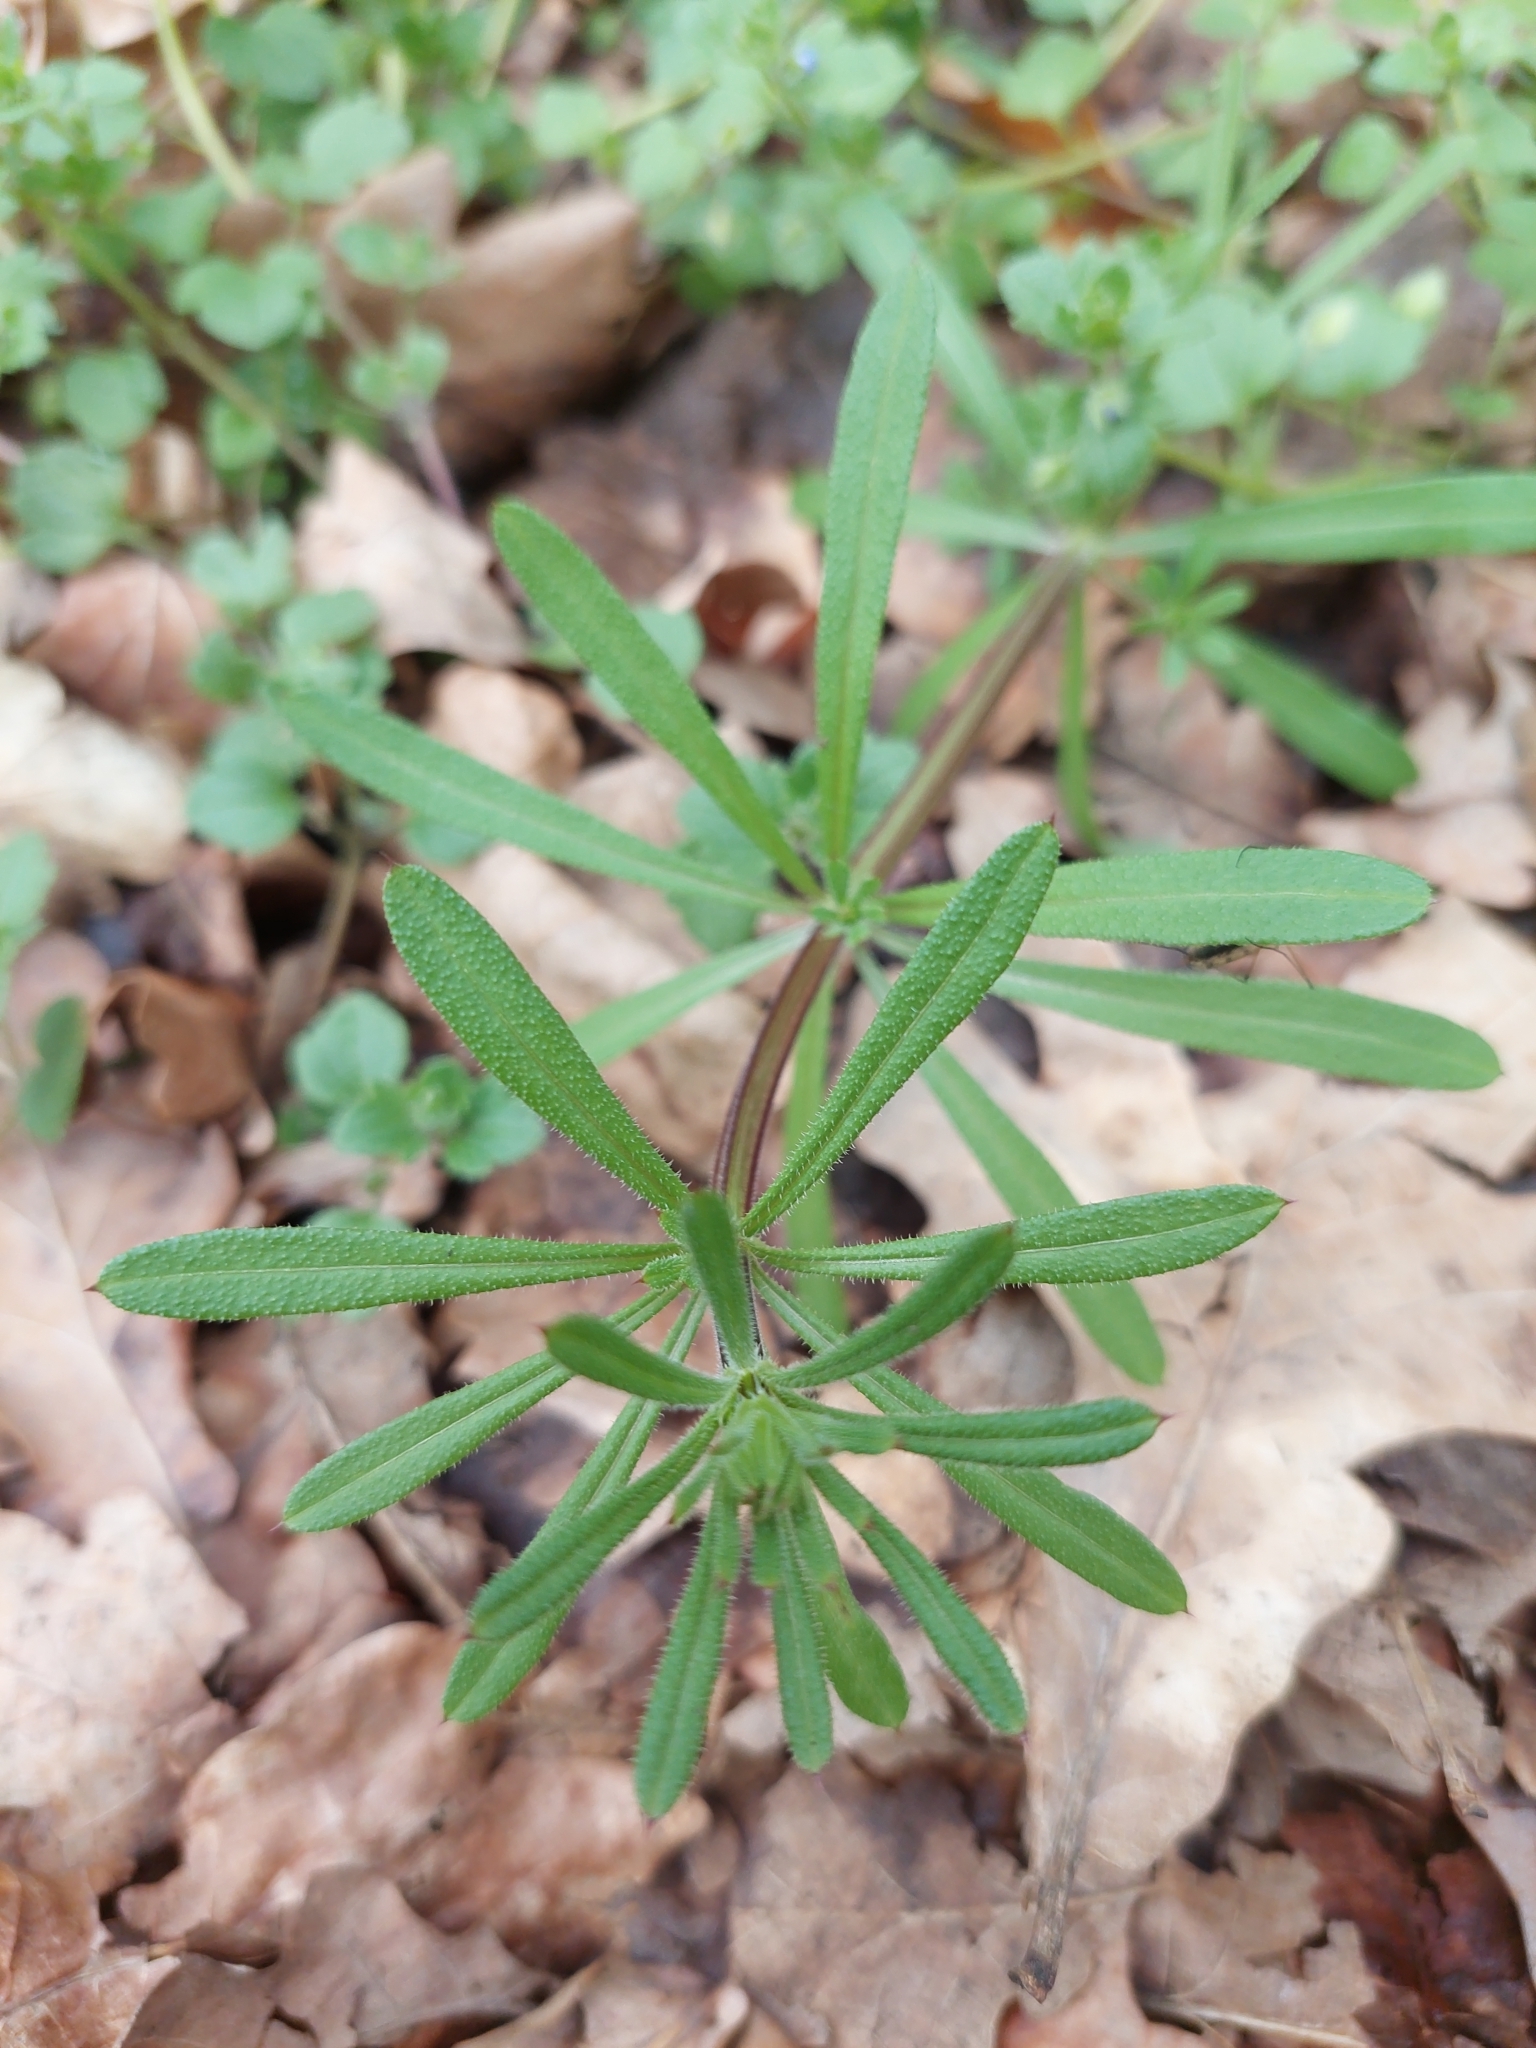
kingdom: Plantae
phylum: Tracheophyta
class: Magnoliopsida
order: Gentianales
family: Rubiaceae
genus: Galium
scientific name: Galium aparine
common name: Cleavers
